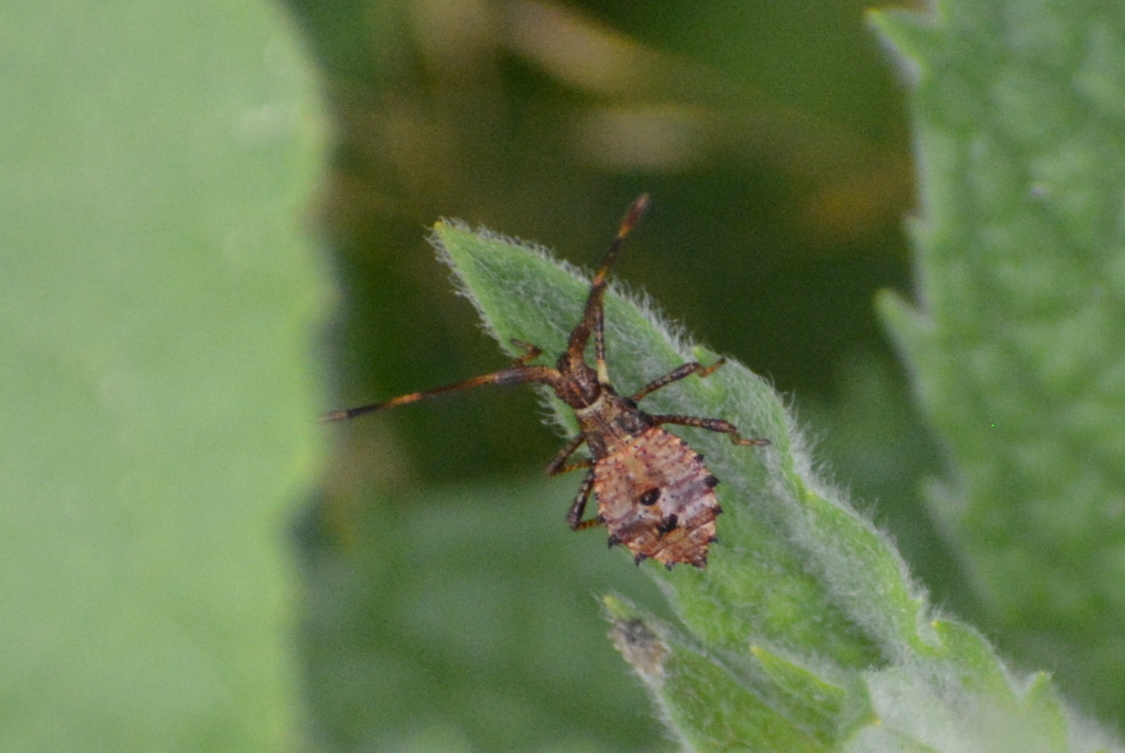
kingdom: Animalia
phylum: Arthropoda
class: Insecta
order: Hemiptera
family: Coreidae
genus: Coreus
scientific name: Coreus marginatus
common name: Dock bug
